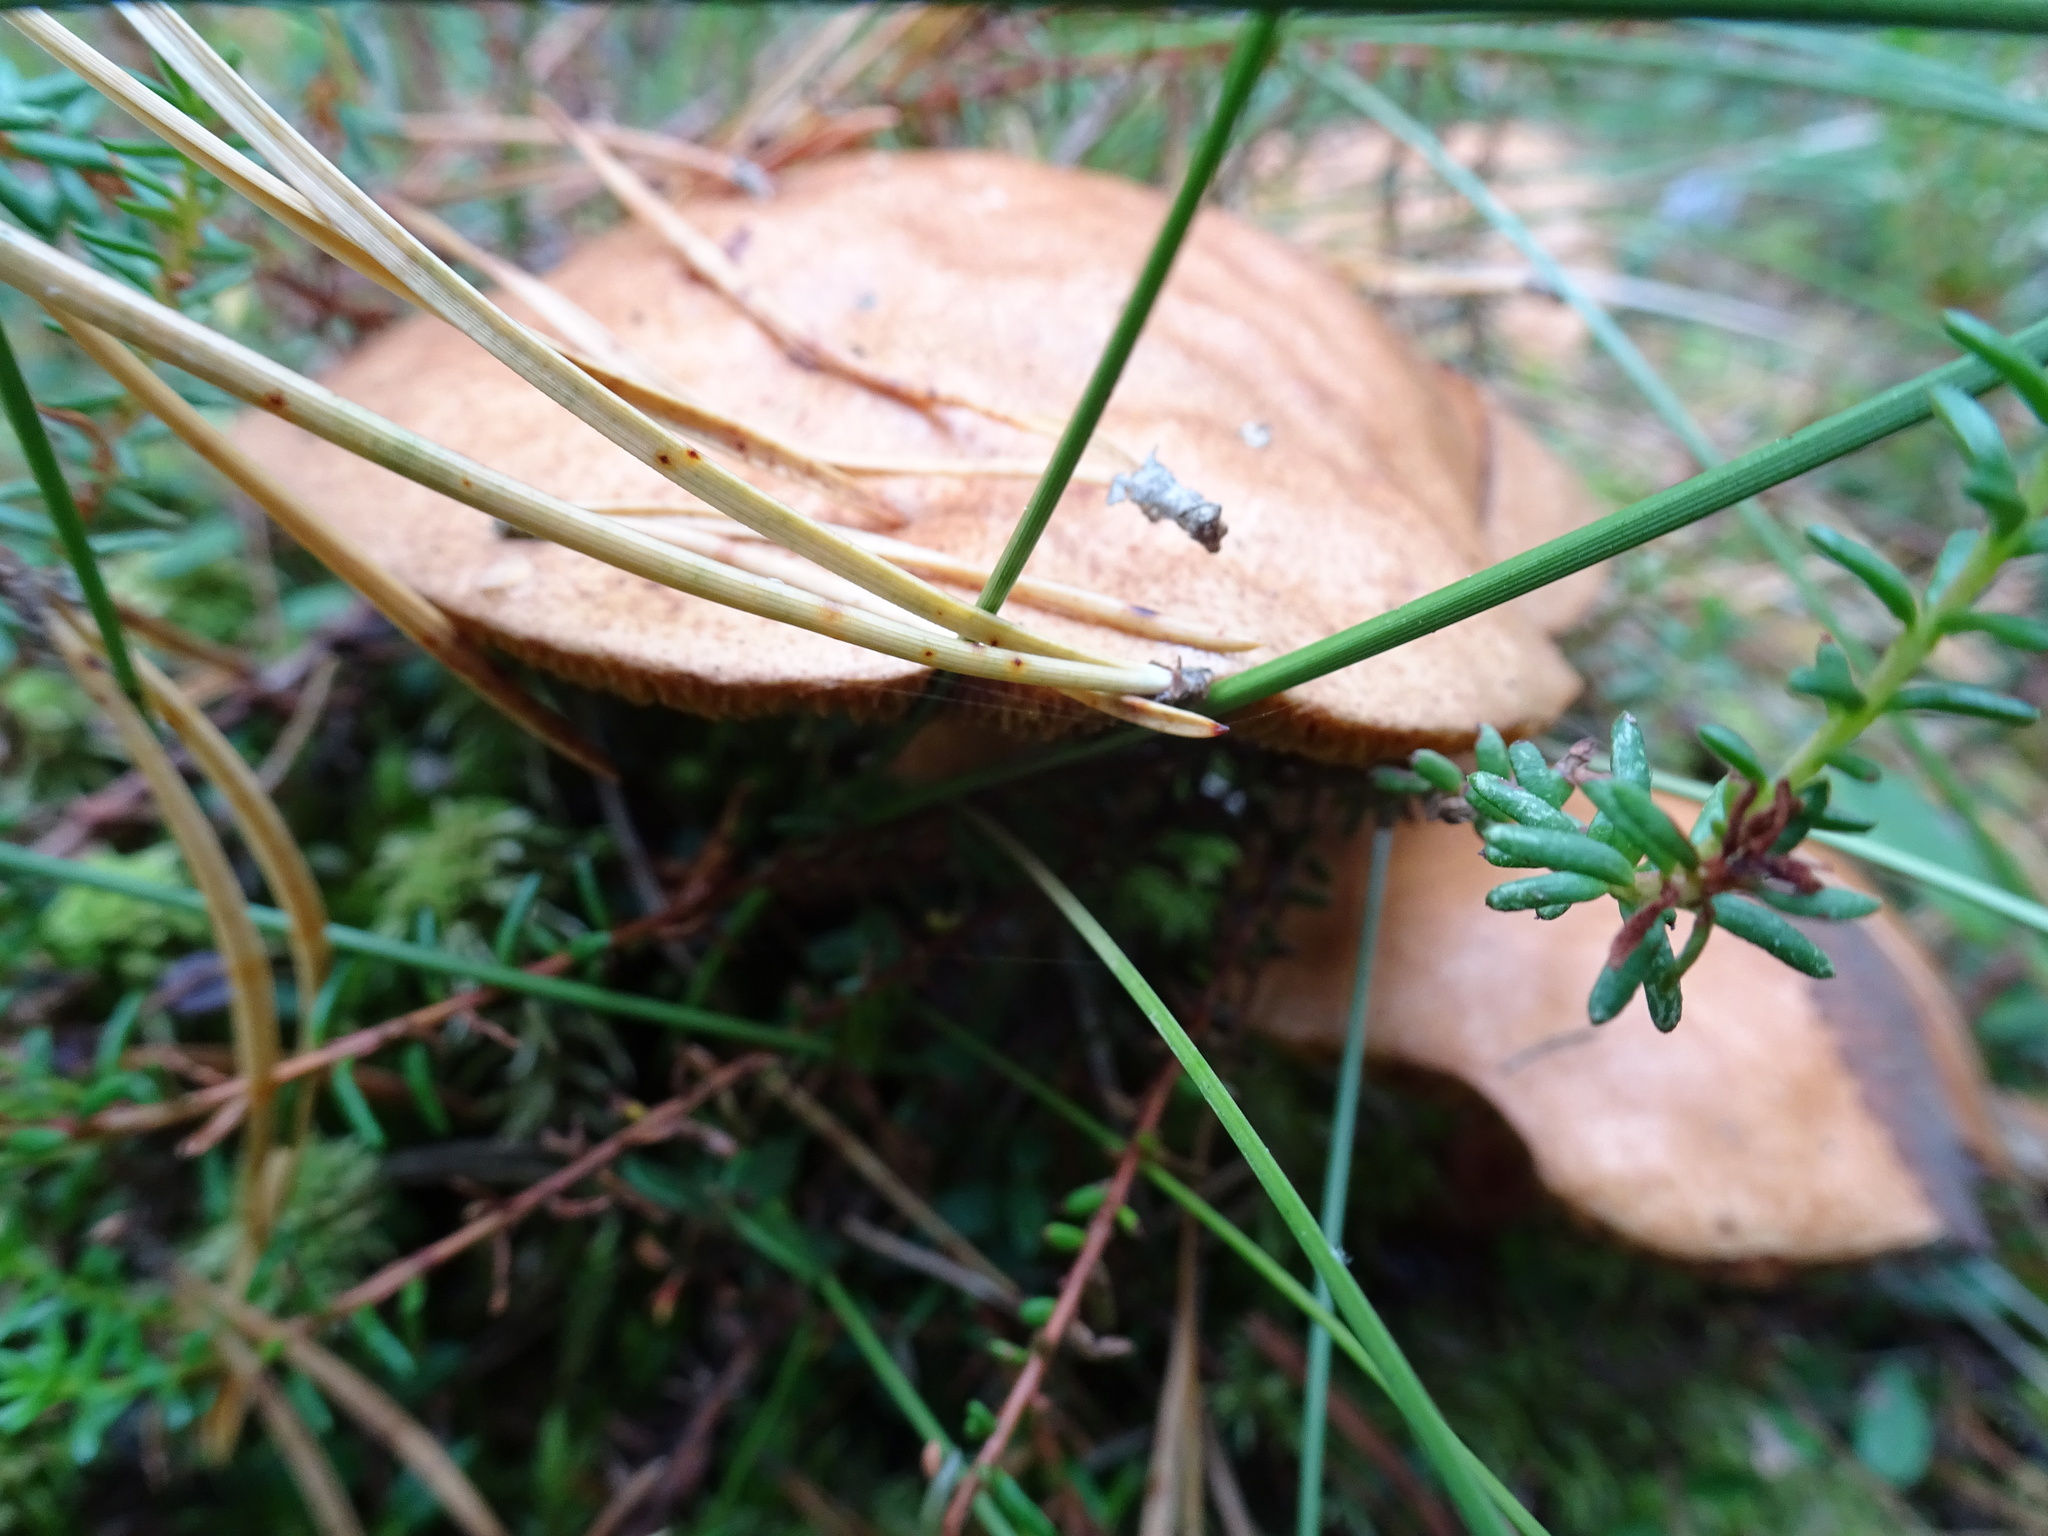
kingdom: Fungi
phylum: Basidiomycota
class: Agaricomycetes
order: Boletales
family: Suillaceae
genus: Suillus
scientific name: Suillus bovinus
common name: Bovine bolete
